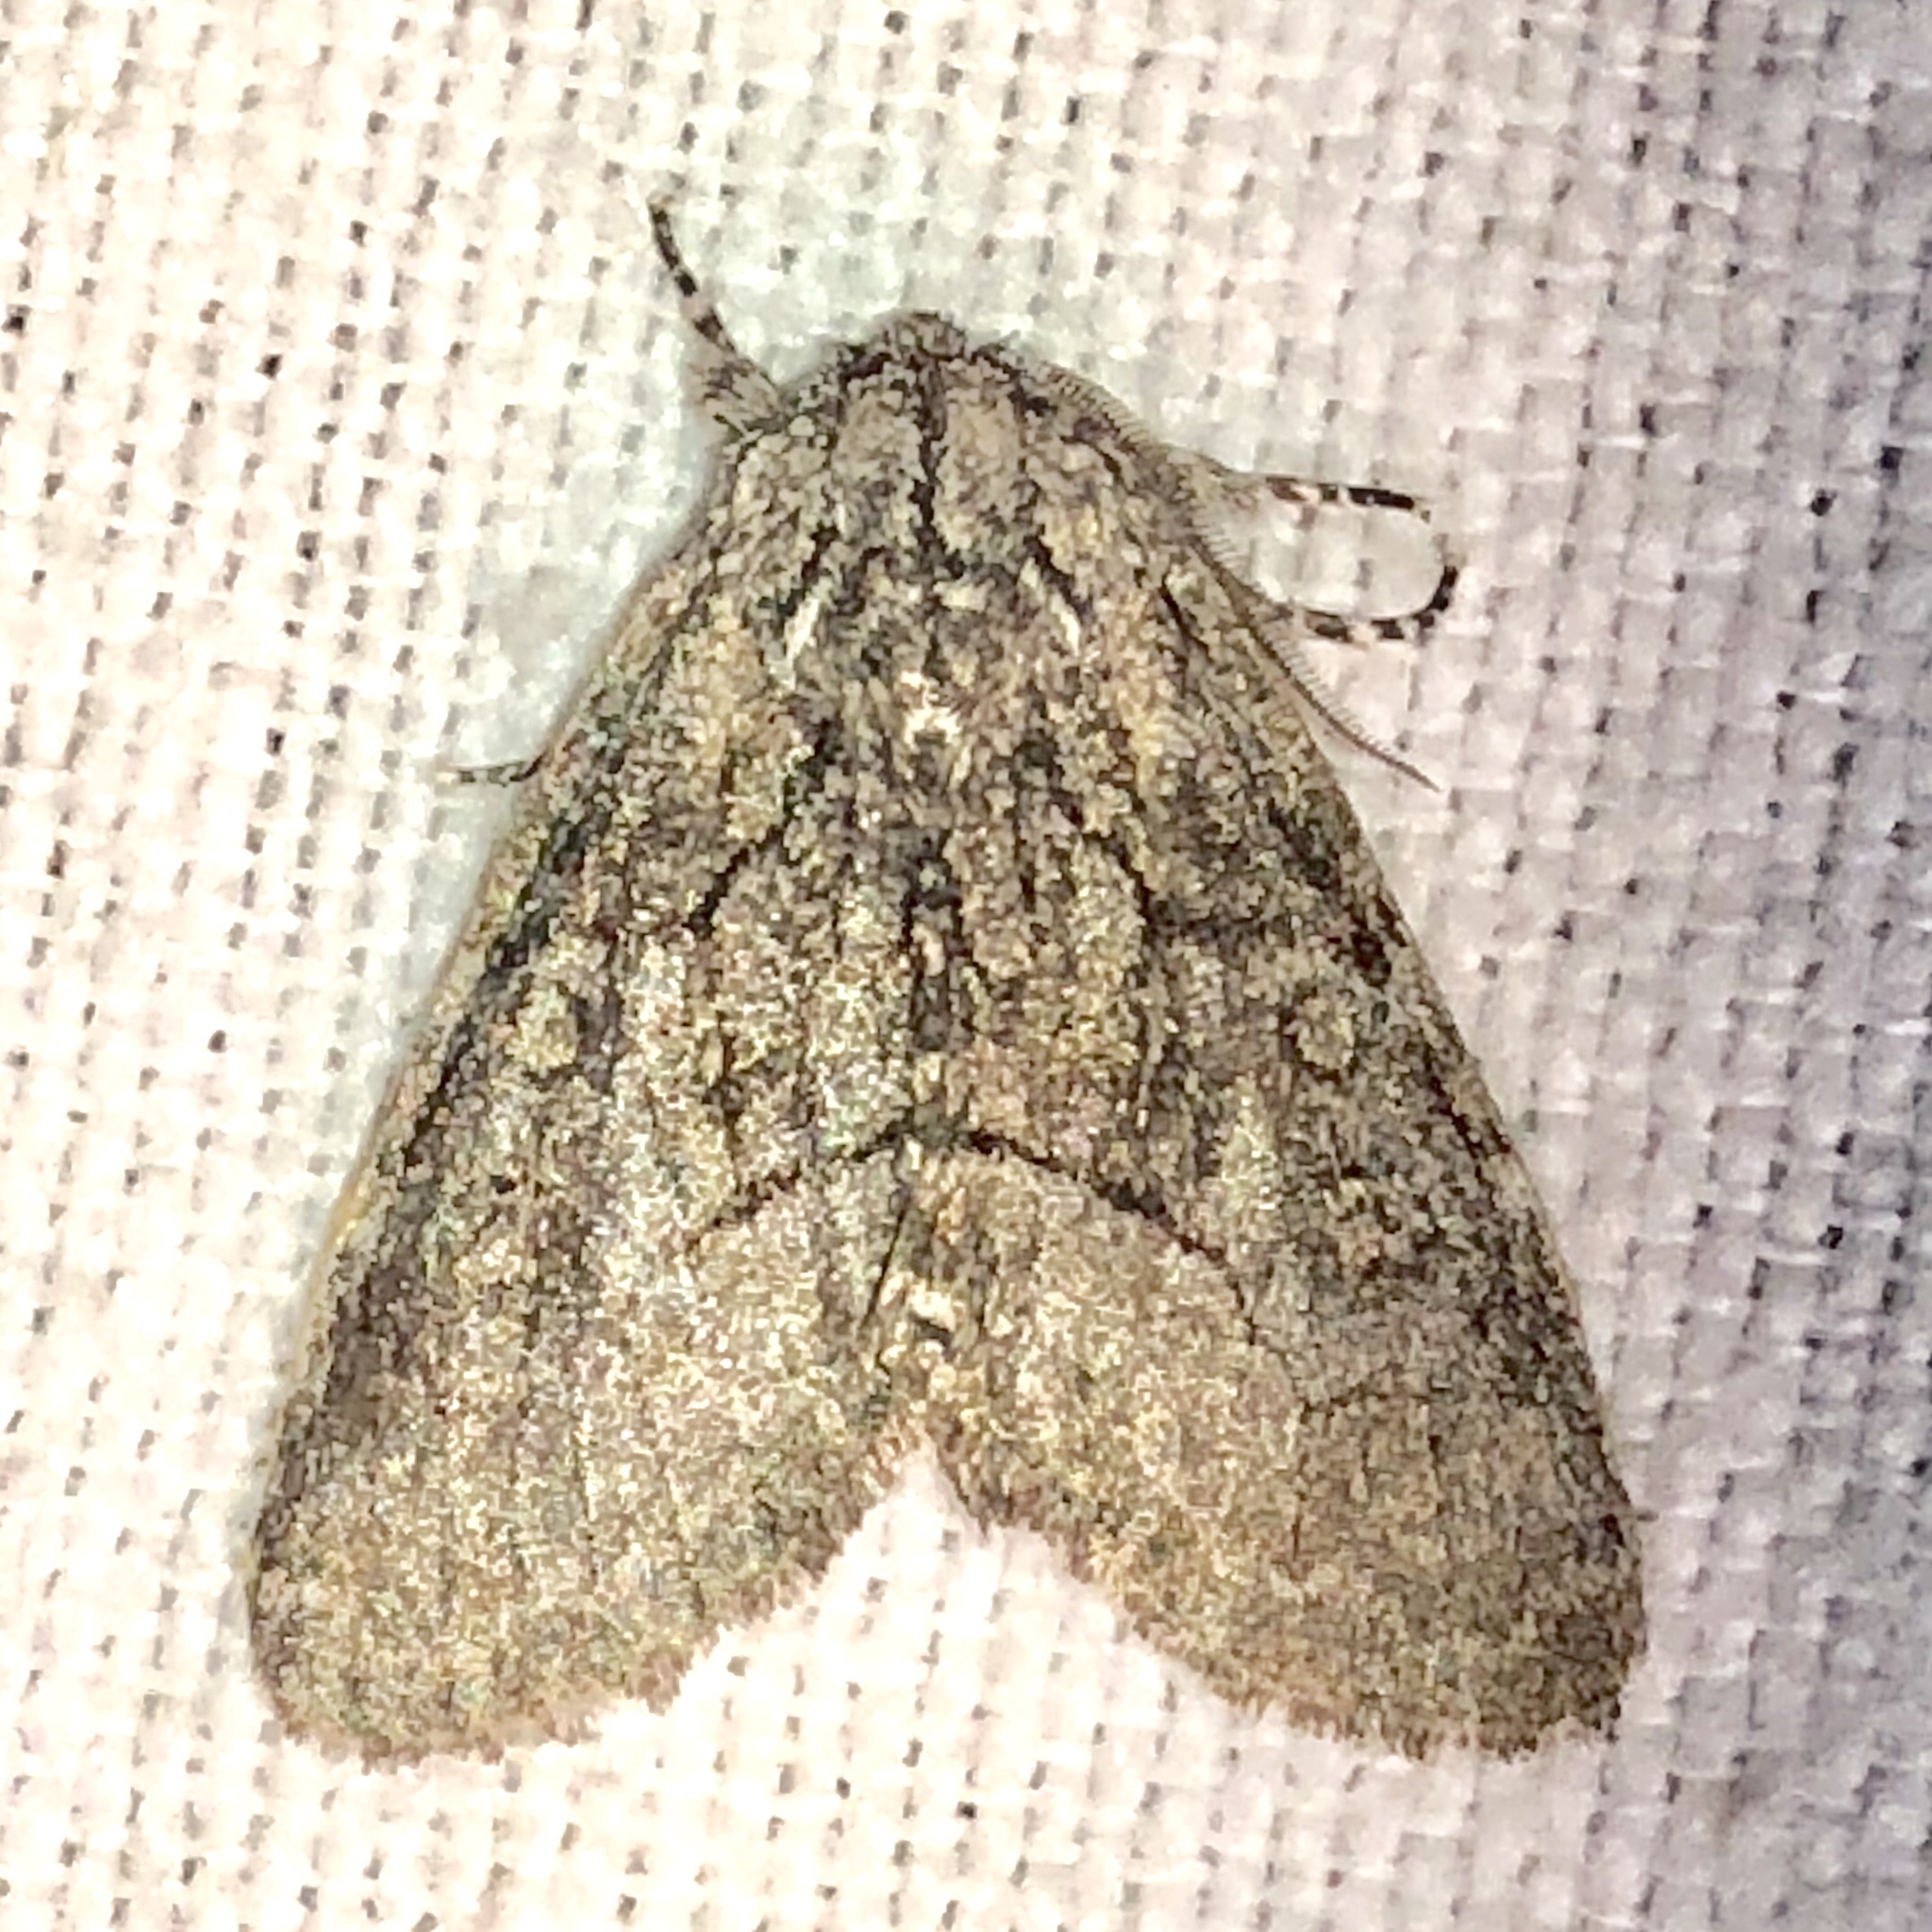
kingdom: Animalia
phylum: Arthropoda
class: Insecta
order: Lepidoptera
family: Noctuidae
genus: Raphia
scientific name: Raphia frater
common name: Brother
